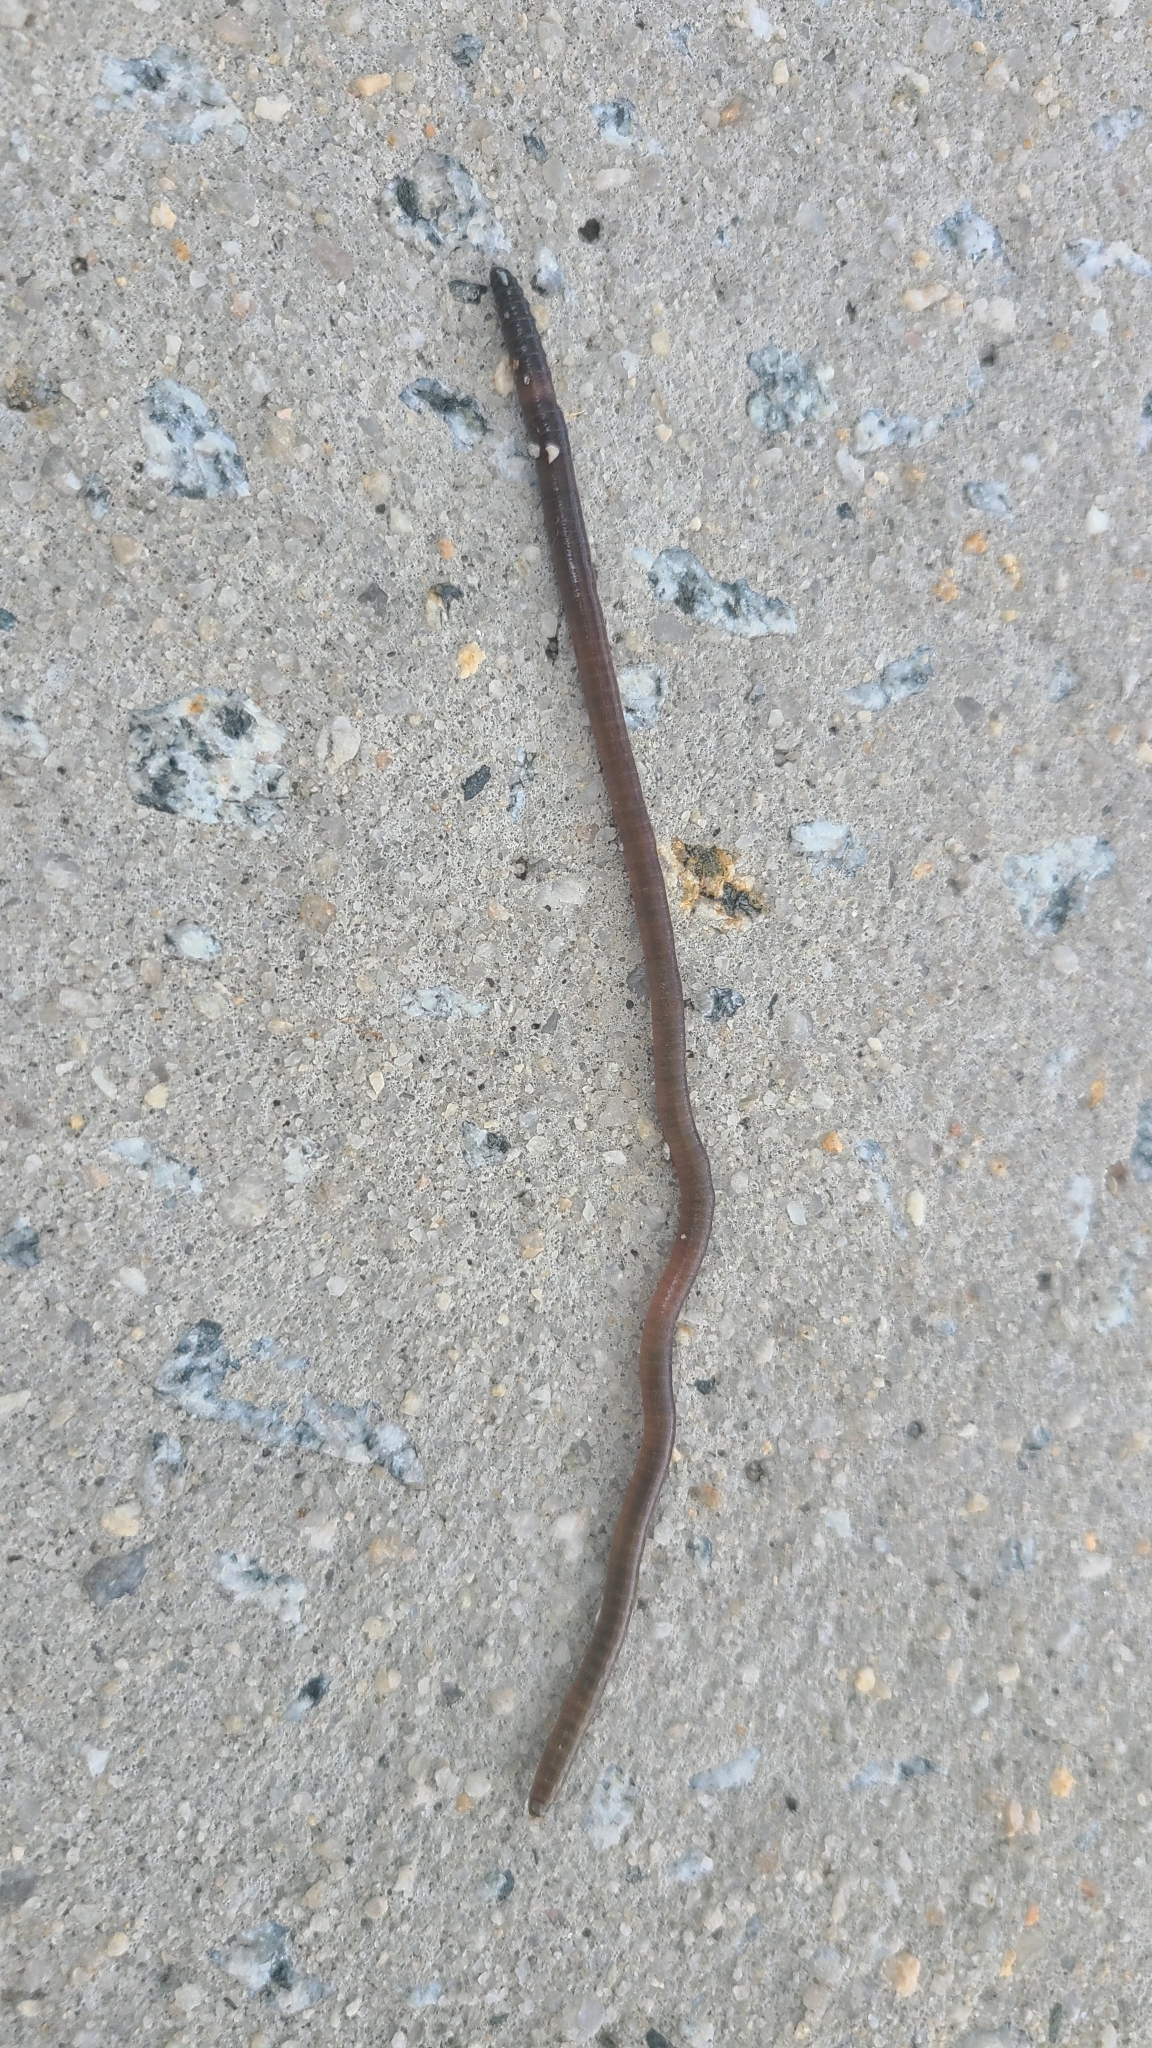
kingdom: Animalia
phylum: Annelida
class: Clitellata
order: Crassiclitellata
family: Lumbricidae
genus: Lumbricus
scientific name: Lumbricus terrestris
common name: Common earthworm
